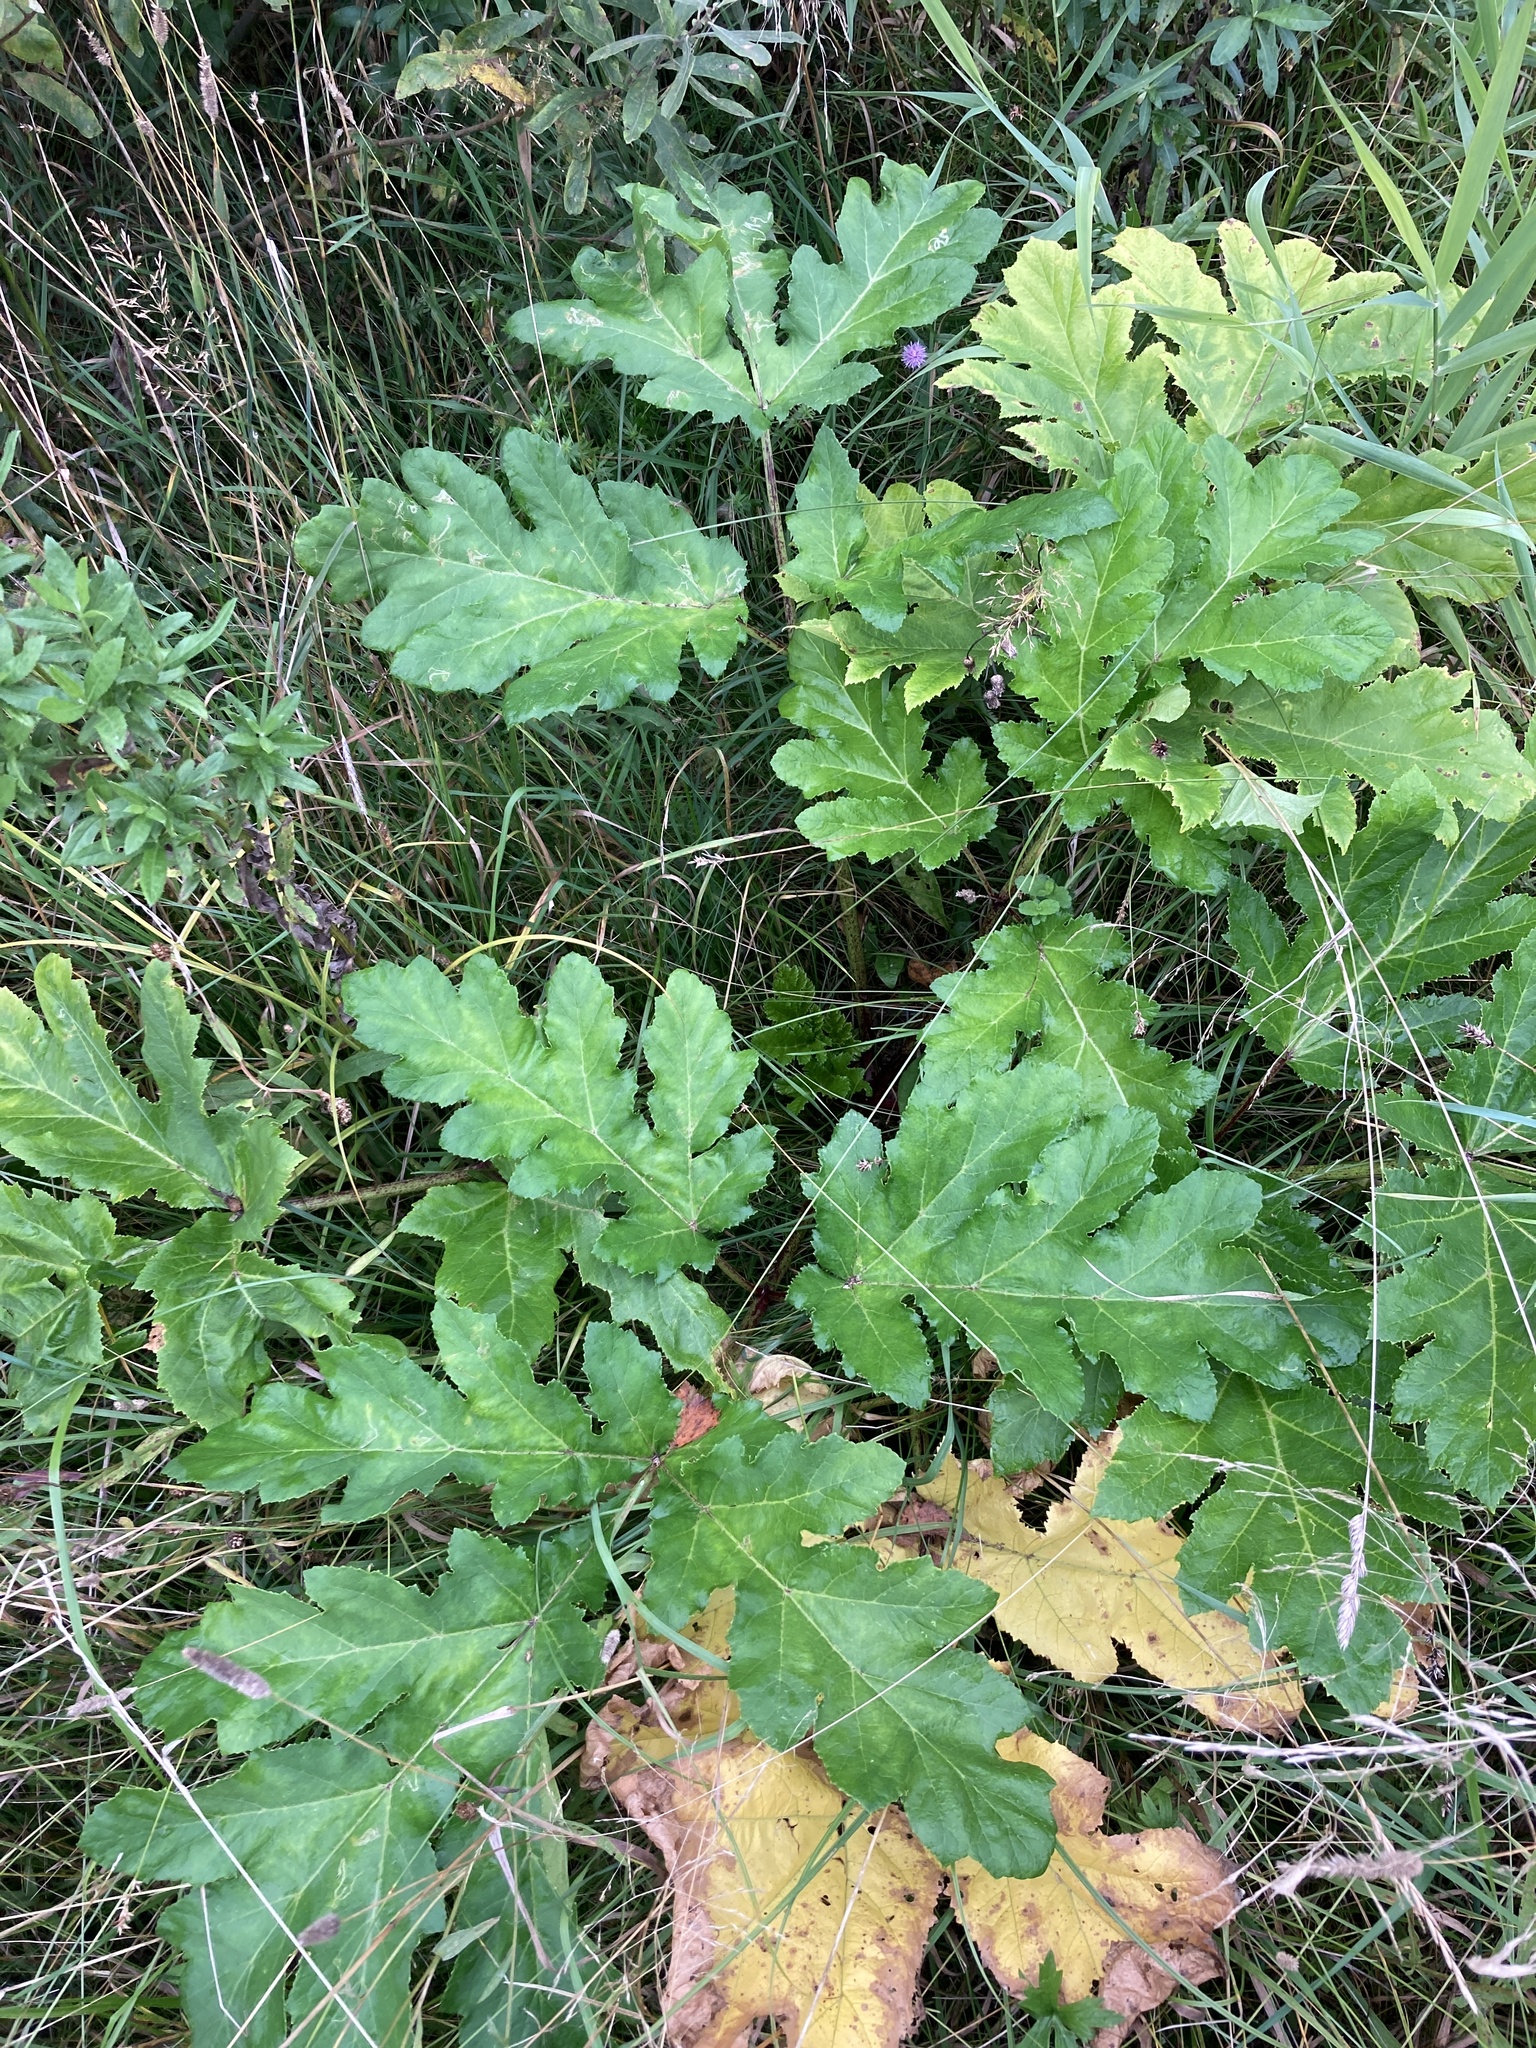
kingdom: Plantae
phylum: Tracheophyta
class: Magnoliopsida
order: Apiales
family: Apiaceae
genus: Heracleum
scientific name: Heracleum sosnowskyi
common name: Sosnowsky's hogweed
